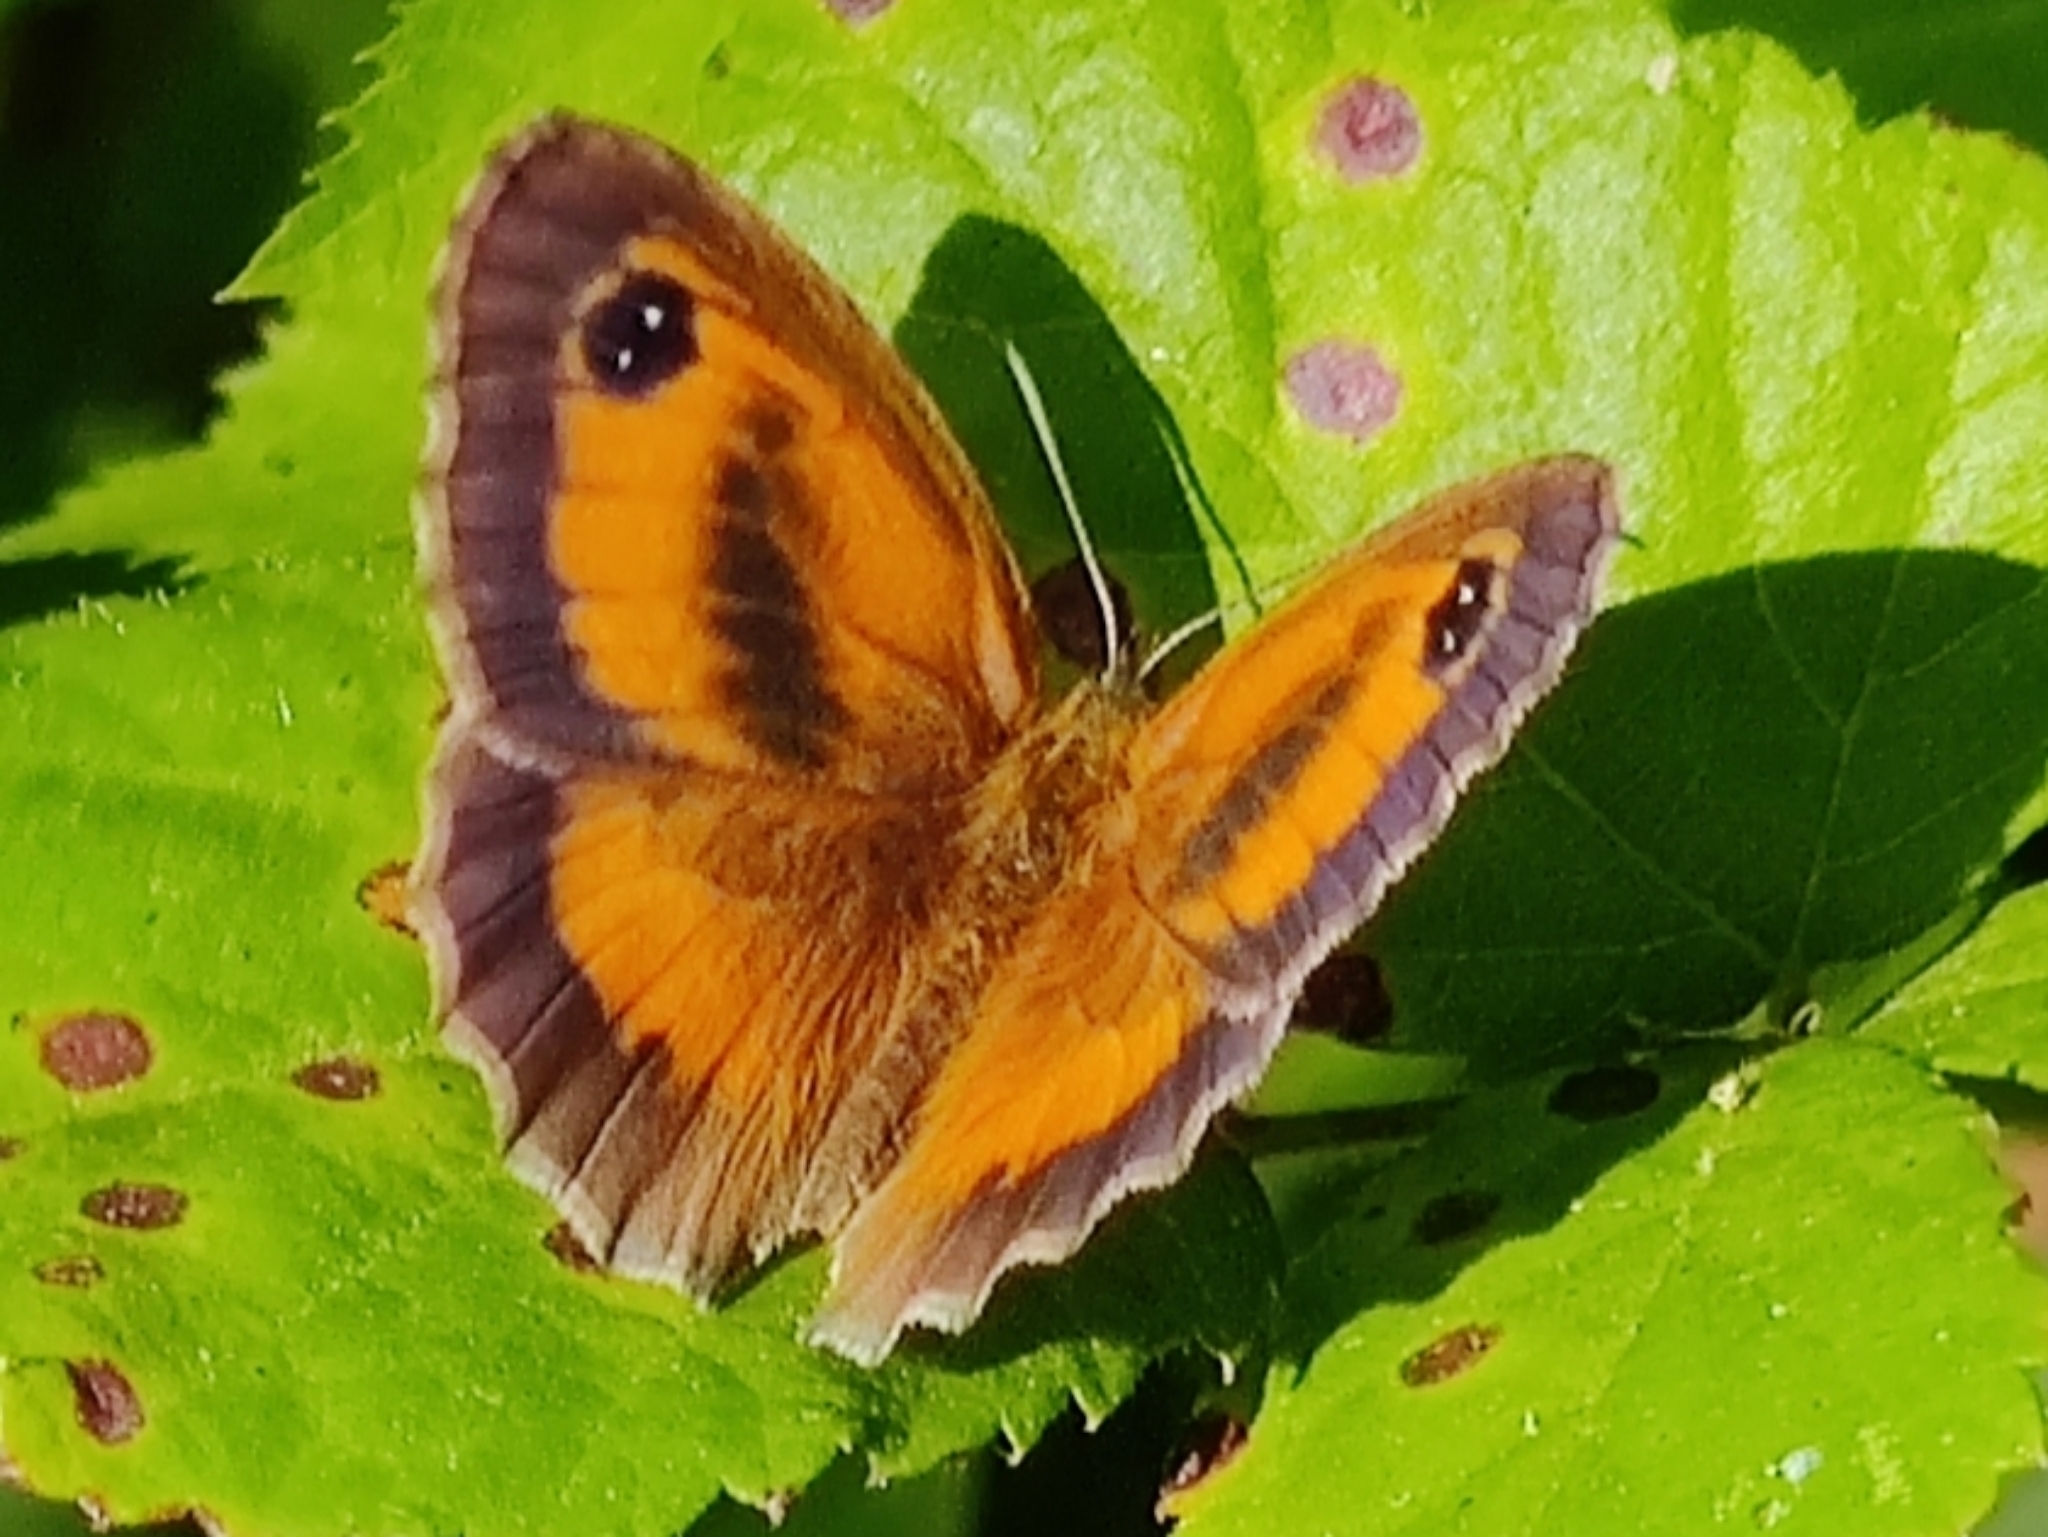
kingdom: Animalia
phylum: Arthropoda
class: Insecta
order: Lepidoptera
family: Nymphalidae
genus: Pyronia
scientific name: Pyronia tithonus
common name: Gatekeeper
